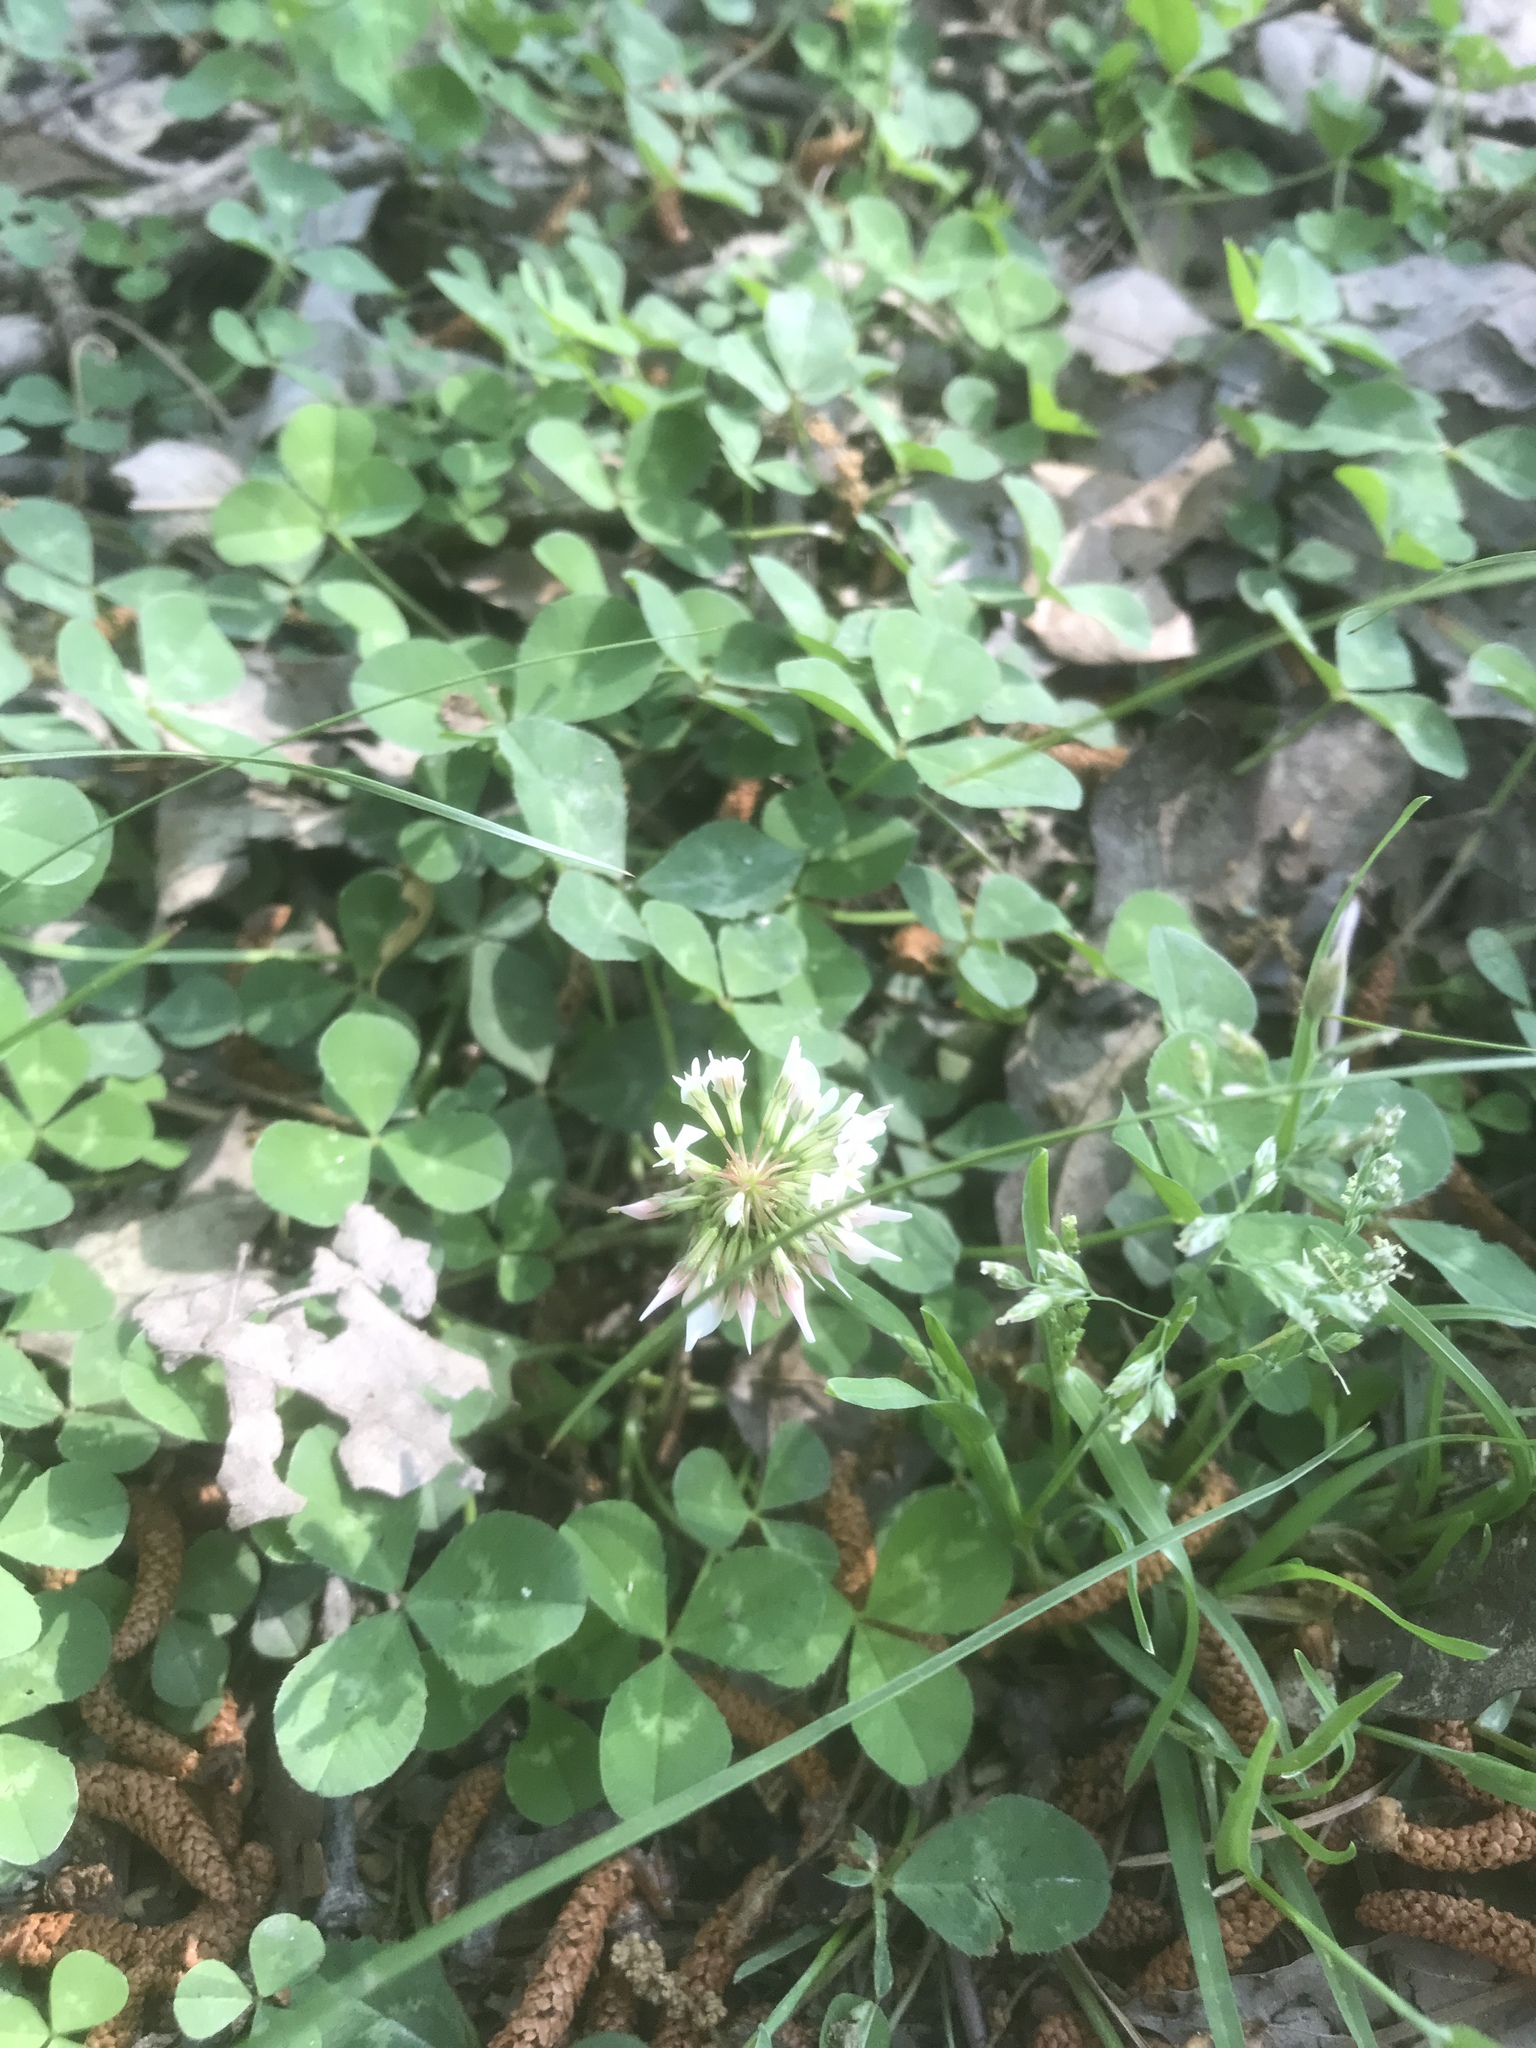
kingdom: Plantae
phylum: Tracheophyta
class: Magnoliopsida
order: Fabales
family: Fabaceae
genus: Trifolium
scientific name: Trifolium repens
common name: White clover
